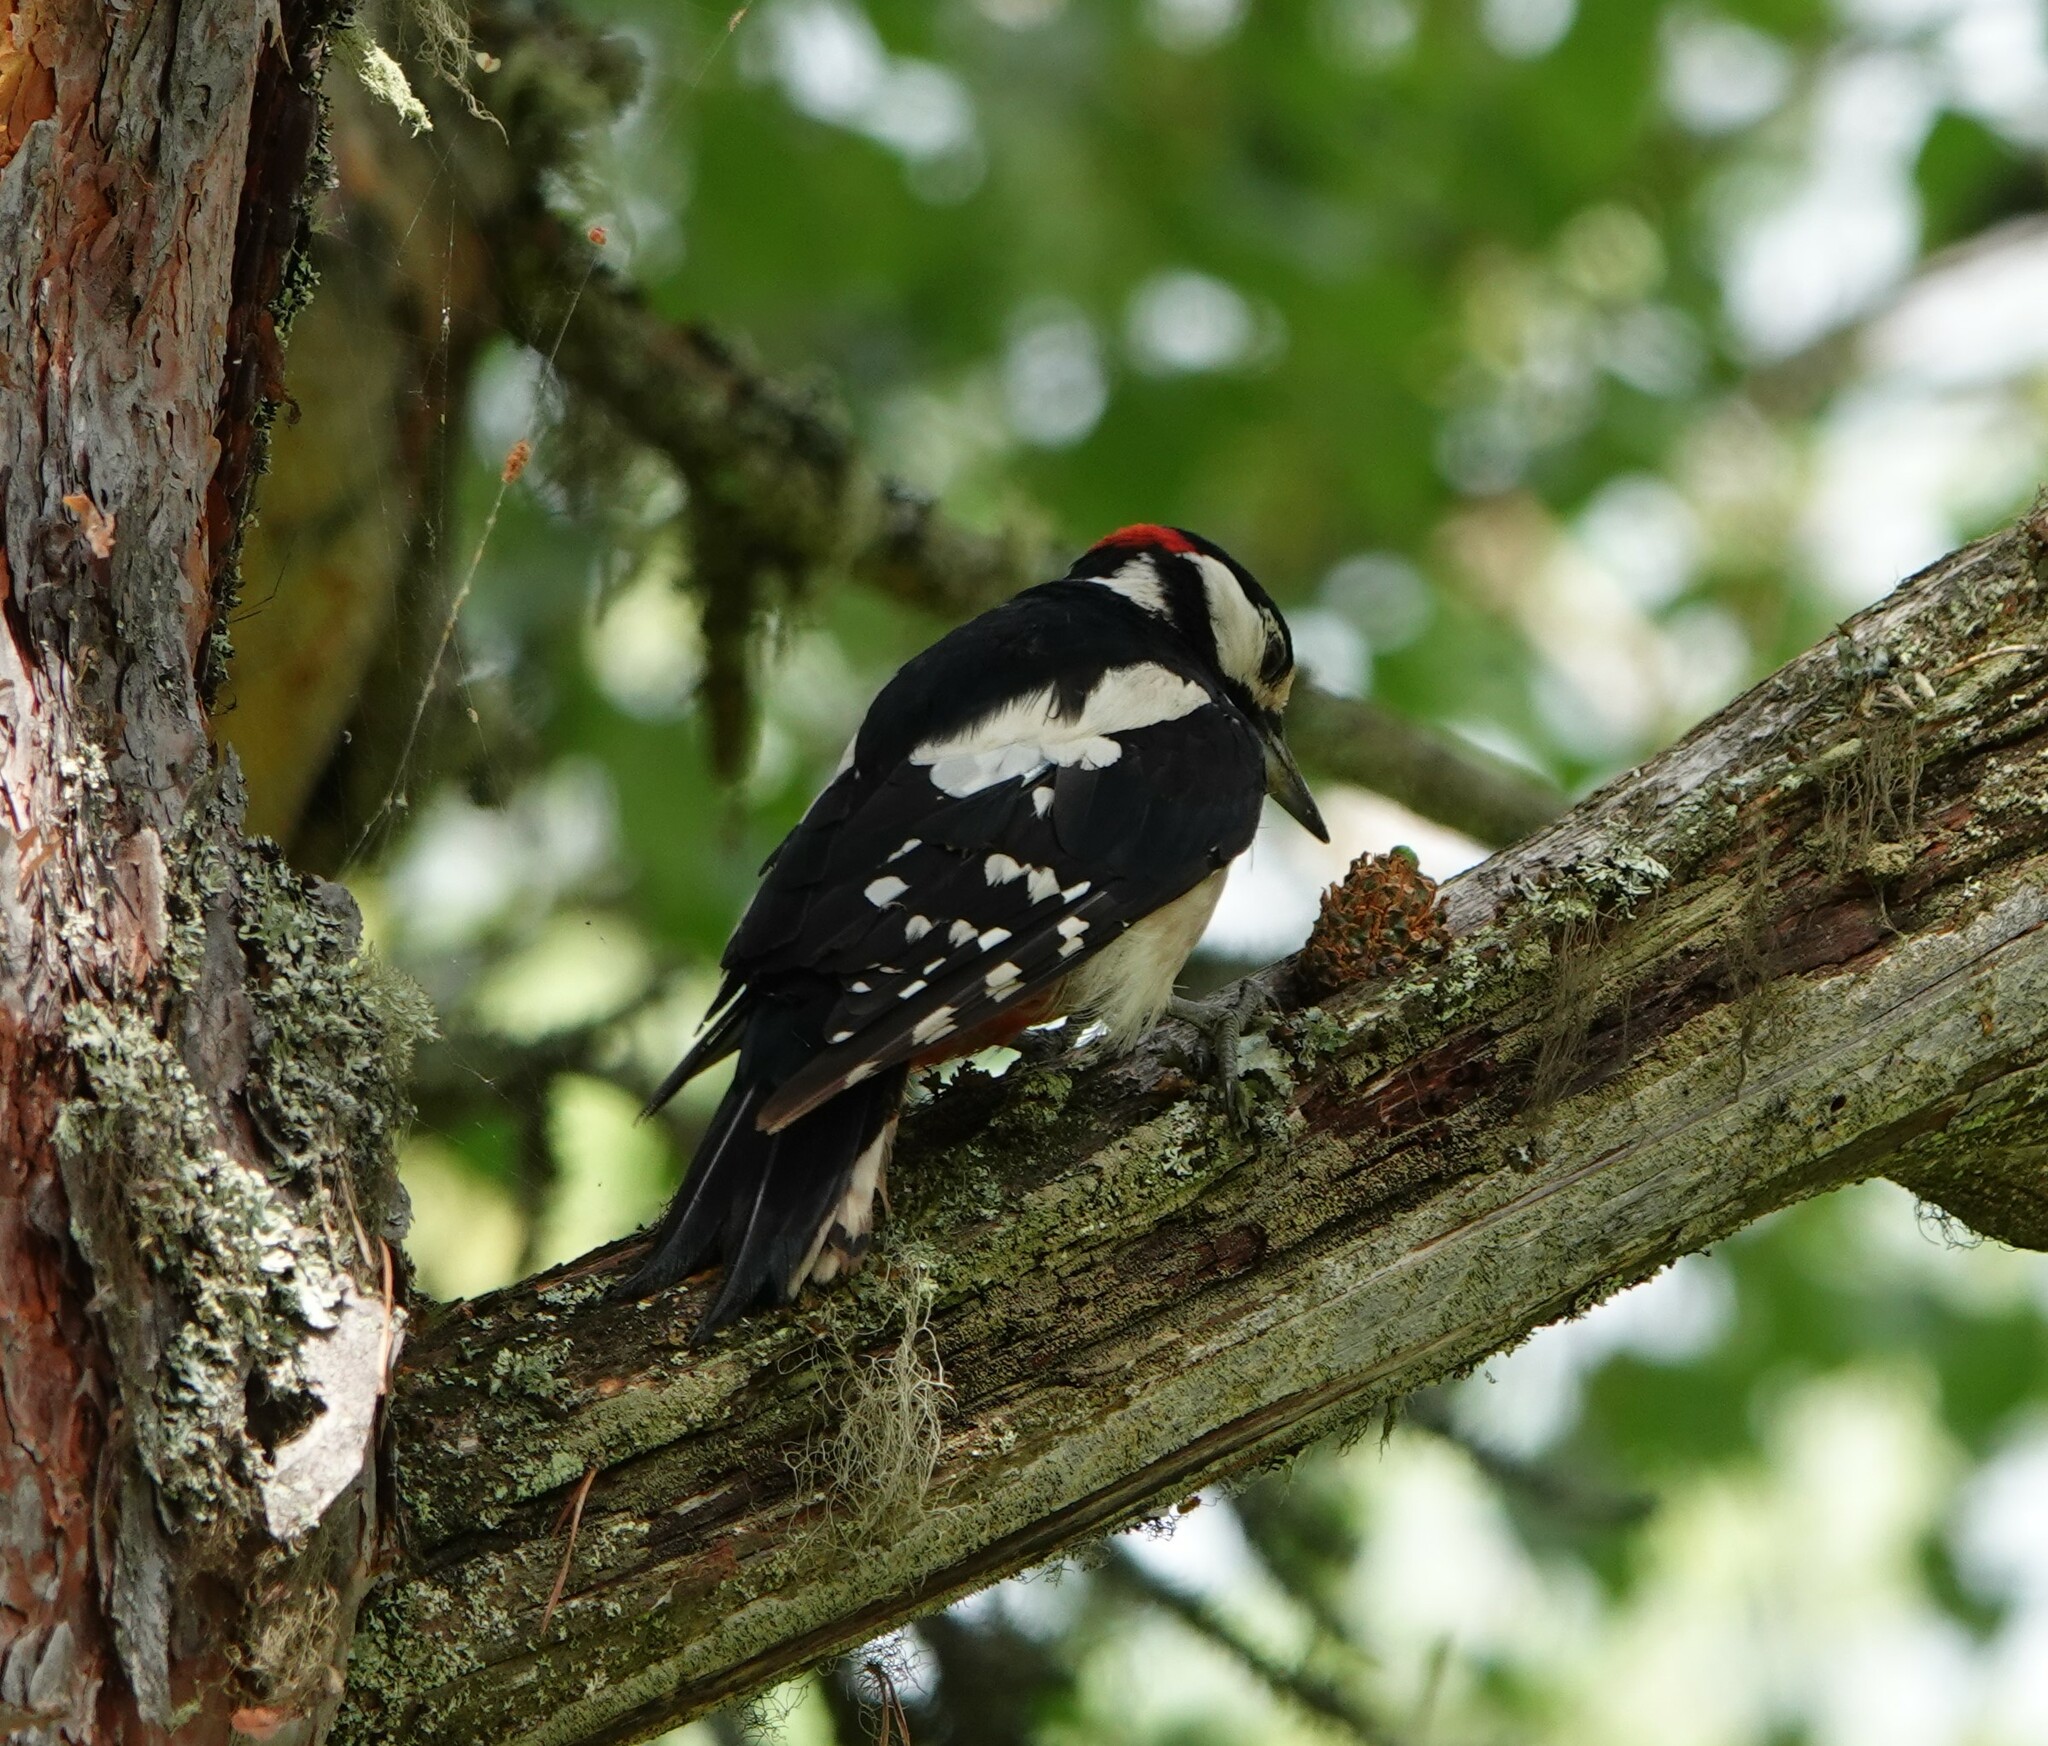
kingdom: Animalia
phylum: Chordata
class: Aves
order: Piciformes
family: Picidae
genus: Dendrocopos
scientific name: Dendrocopos major
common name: Great spotted woodpecker
